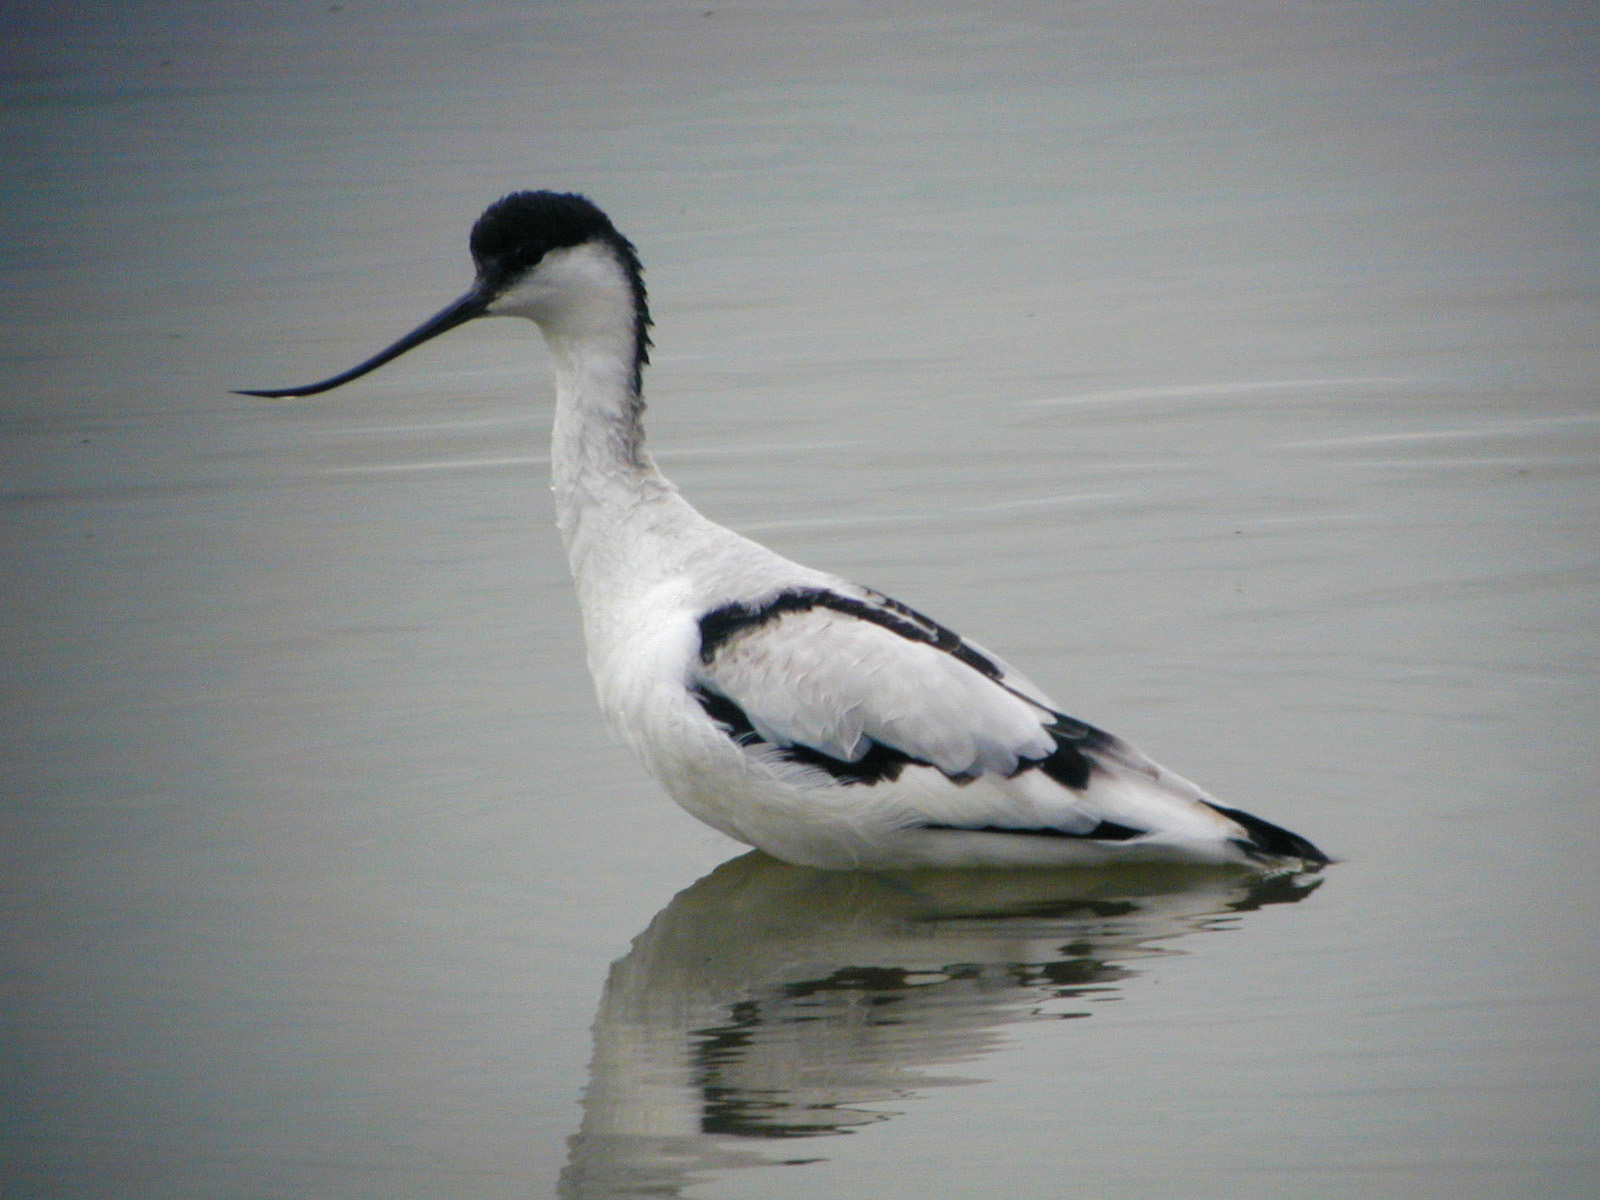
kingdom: Animalia
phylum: Chordata
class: Aves
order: Charadriiformes
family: Recurvirostridae
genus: Recurvirostra
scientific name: Recurvirostra avosetta
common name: Pied avocet
